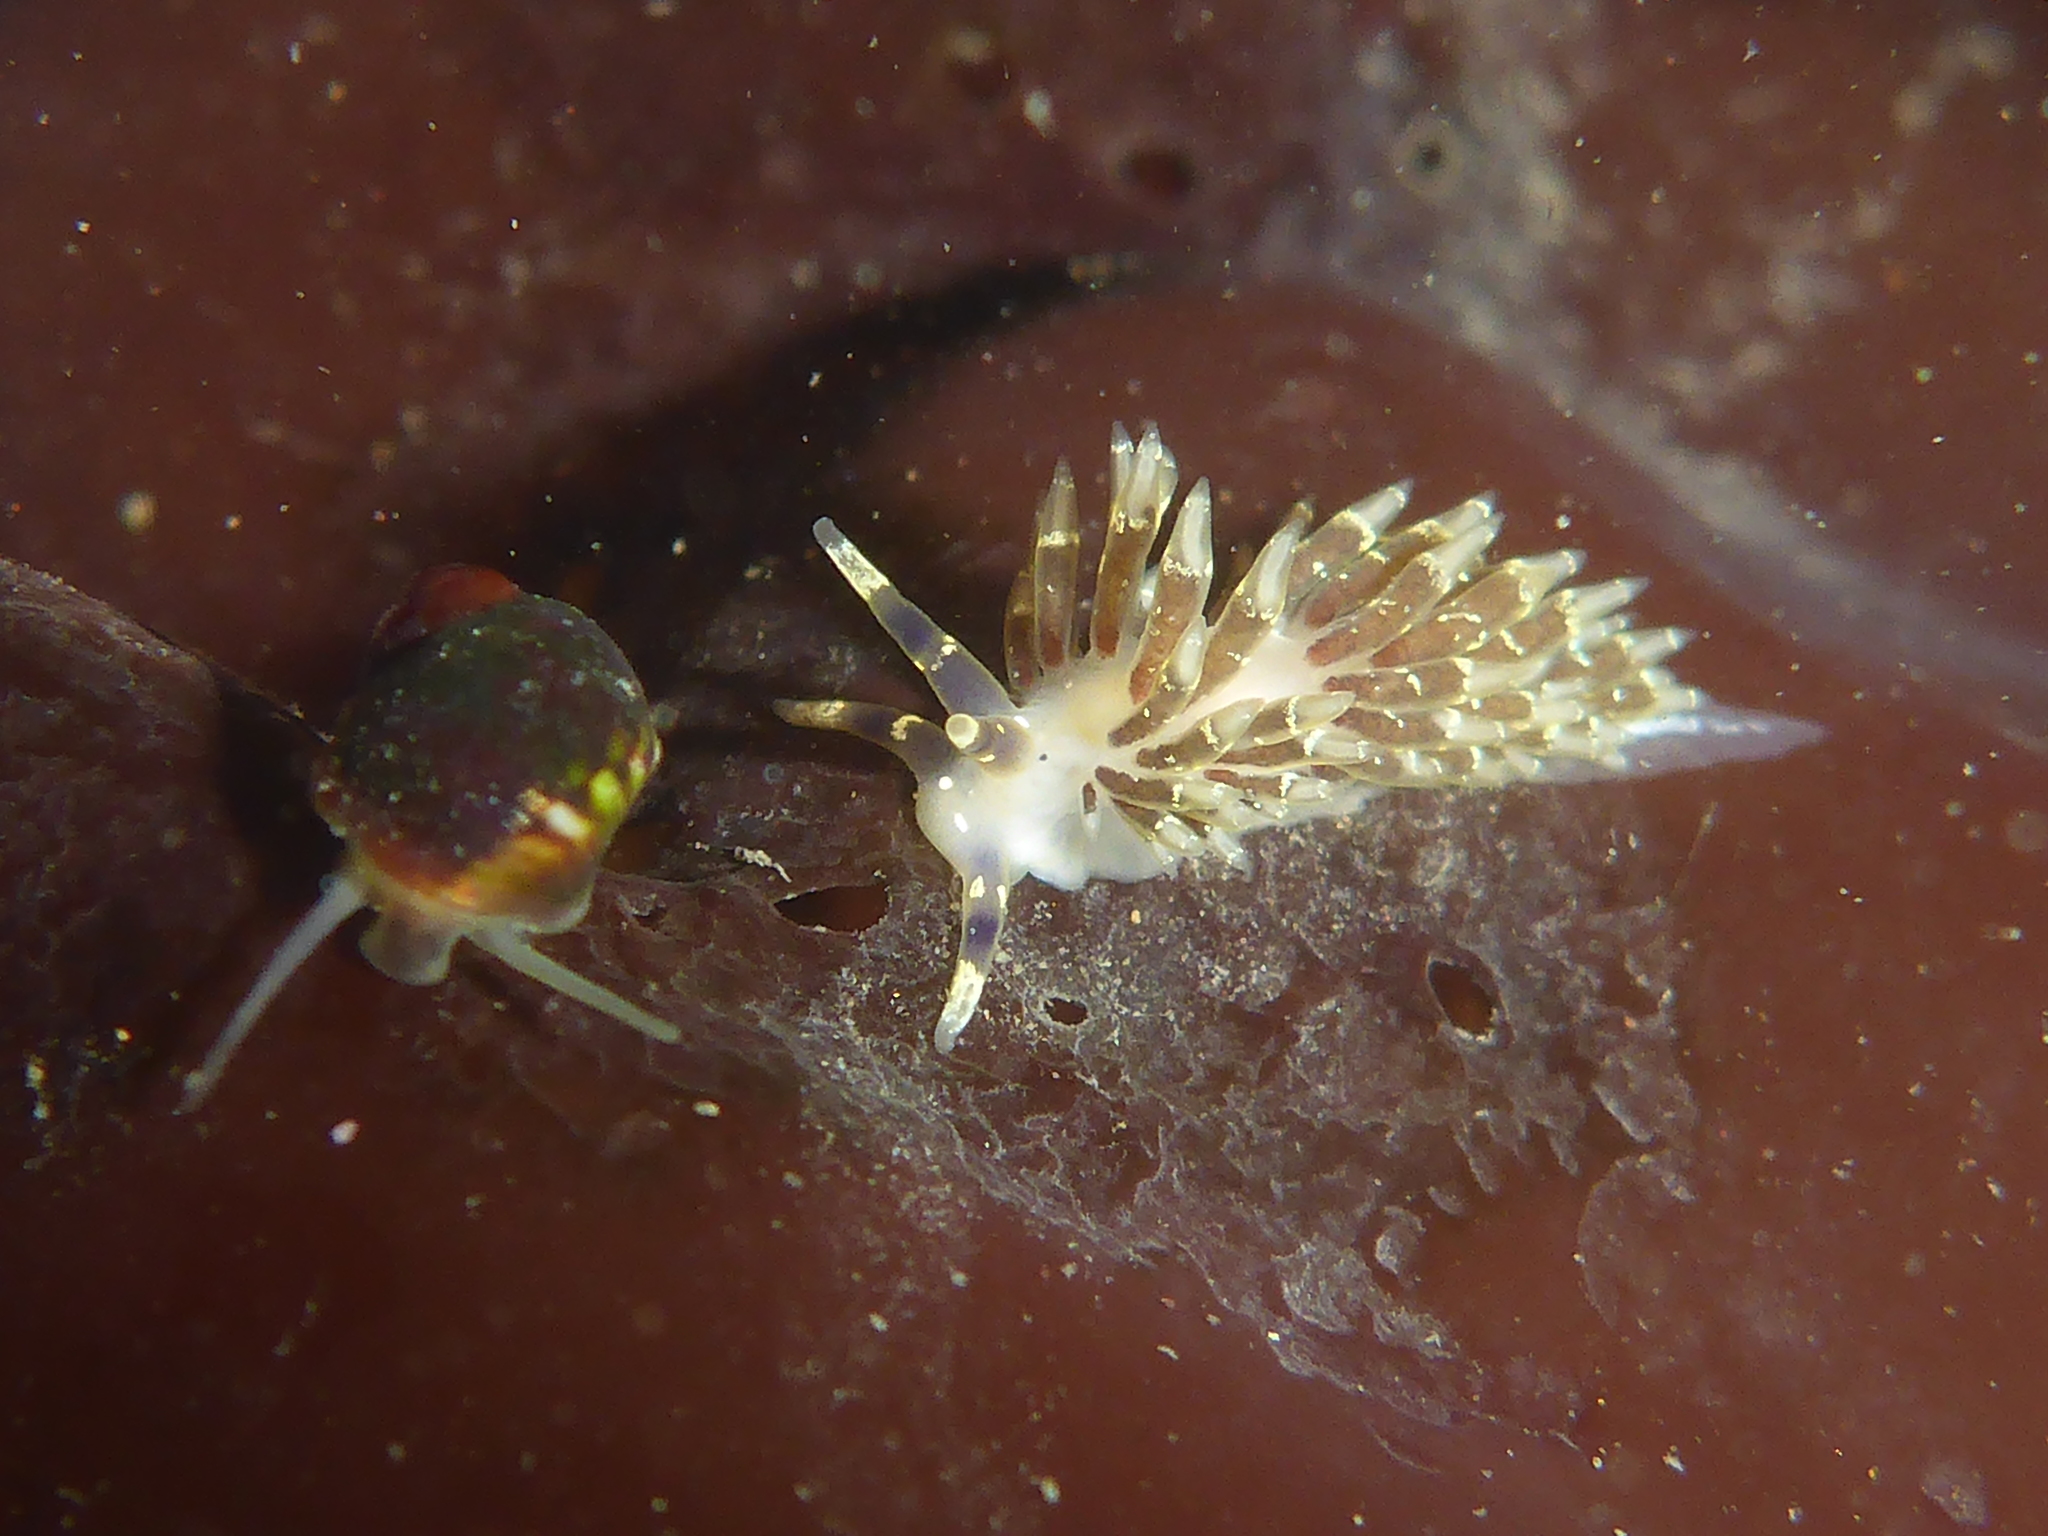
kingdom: Animalia
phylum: Mollusca
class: Gastropoda
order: Nudibranchia
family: Abronicidae
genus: Abronica
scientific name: Abronica abronia
